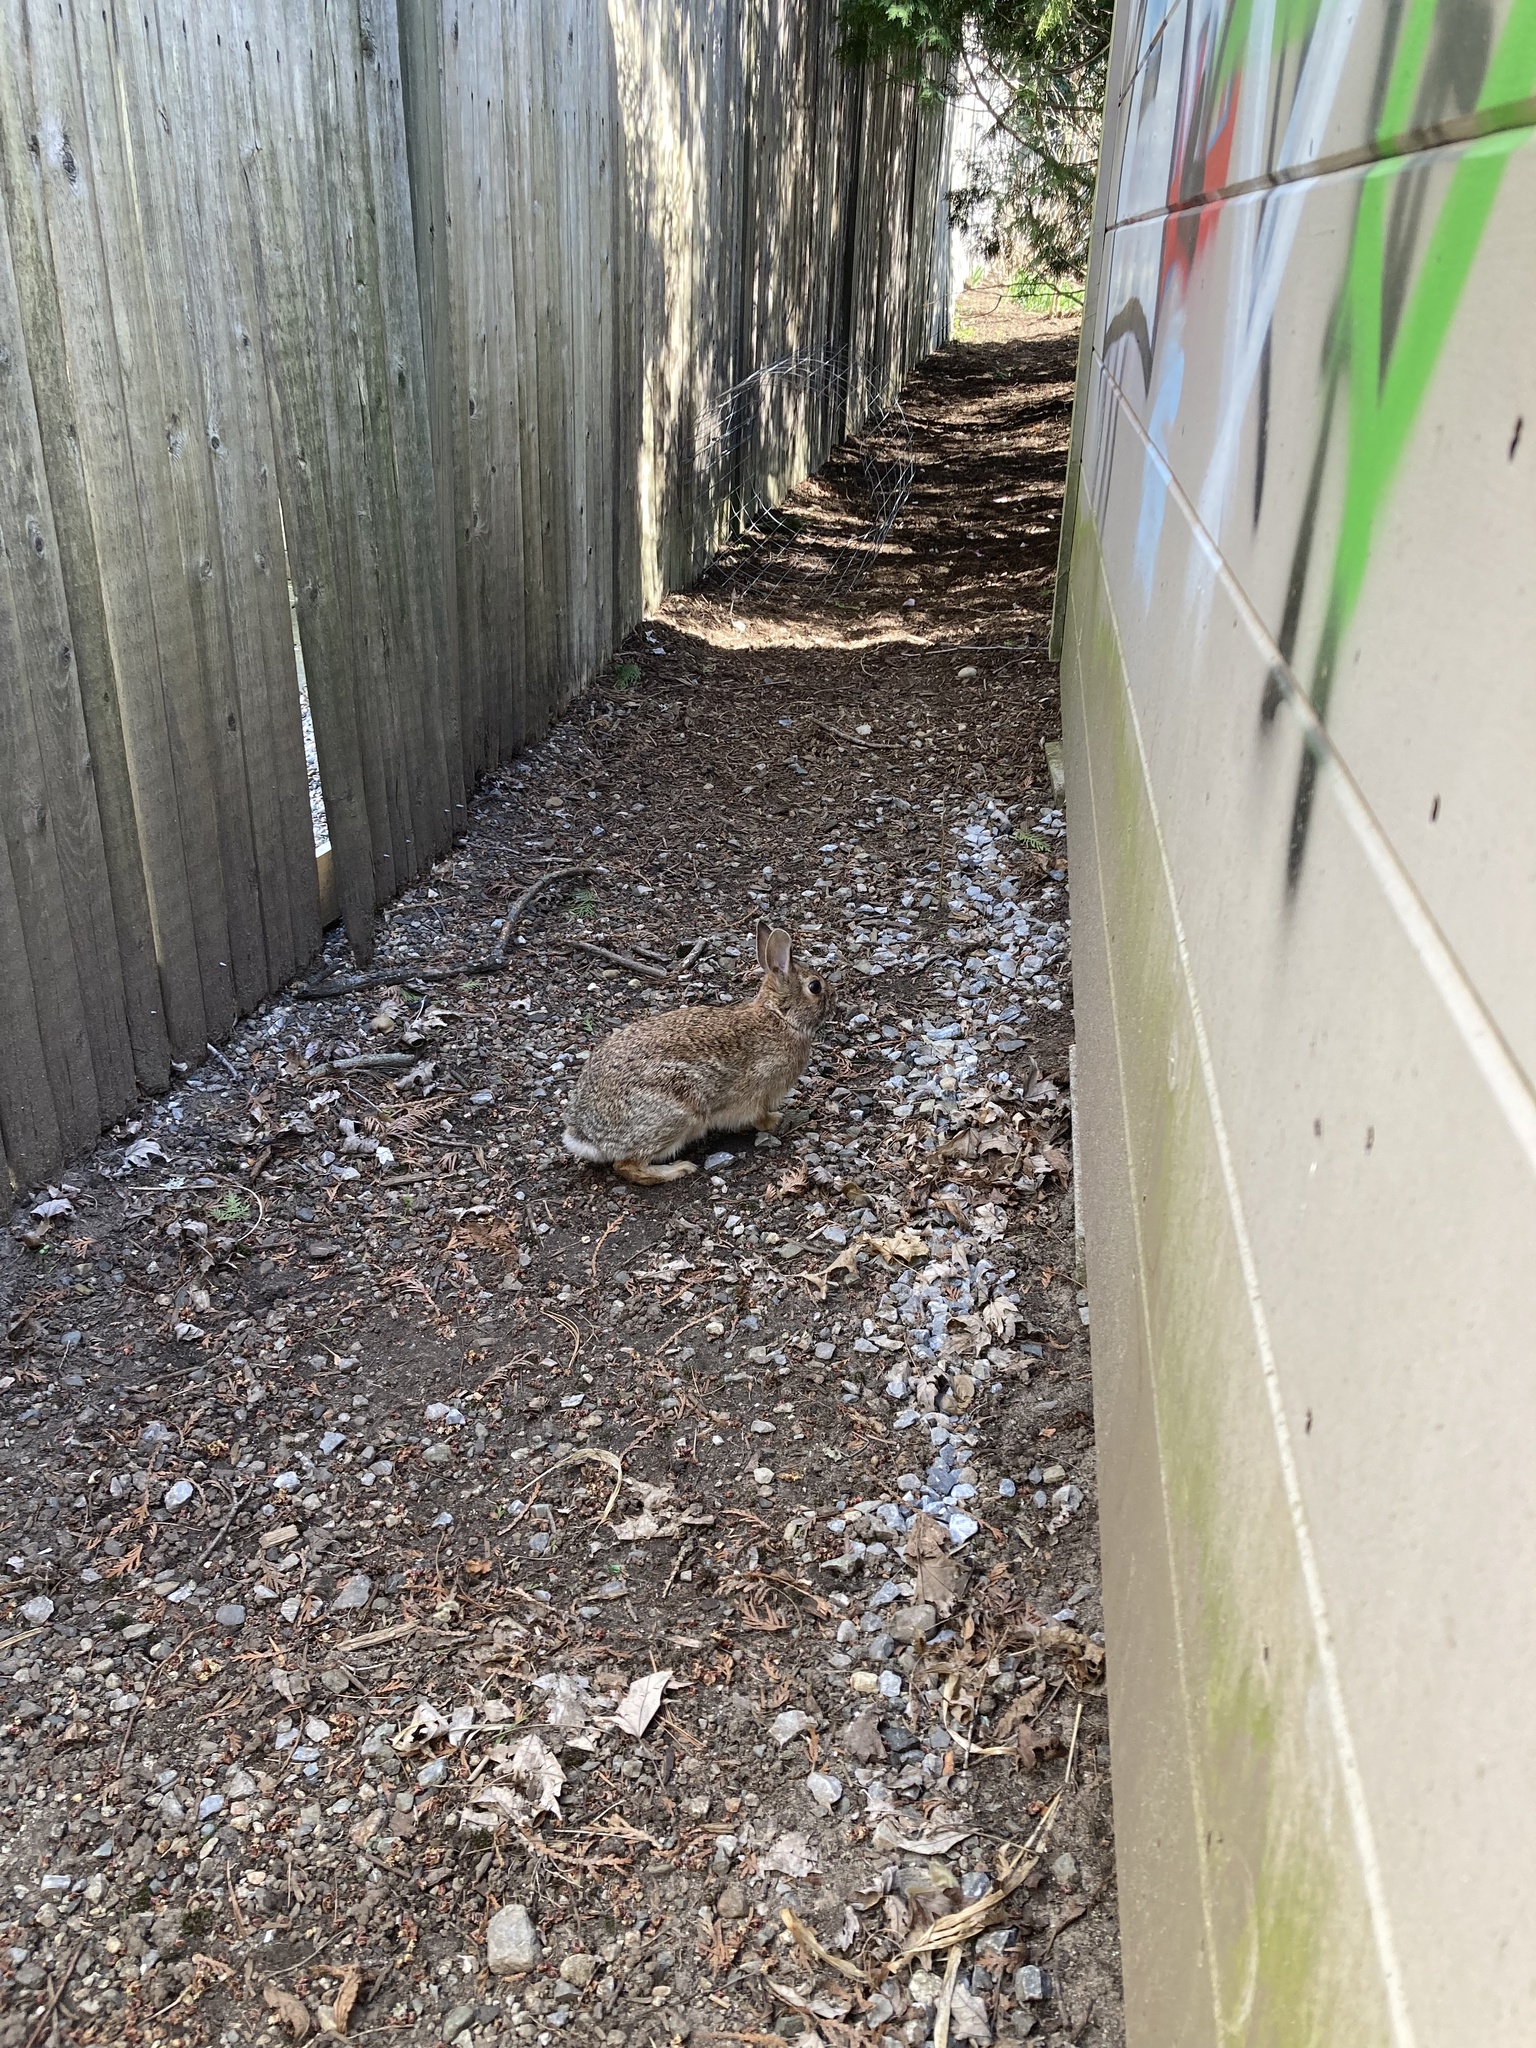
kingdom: Animalia
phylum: Chordata
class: Mammalia
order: Lagomorpha
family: Leporidae
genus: Sylvilagus
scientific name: Sylvilagus floridanus
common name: Eastern cottontail
